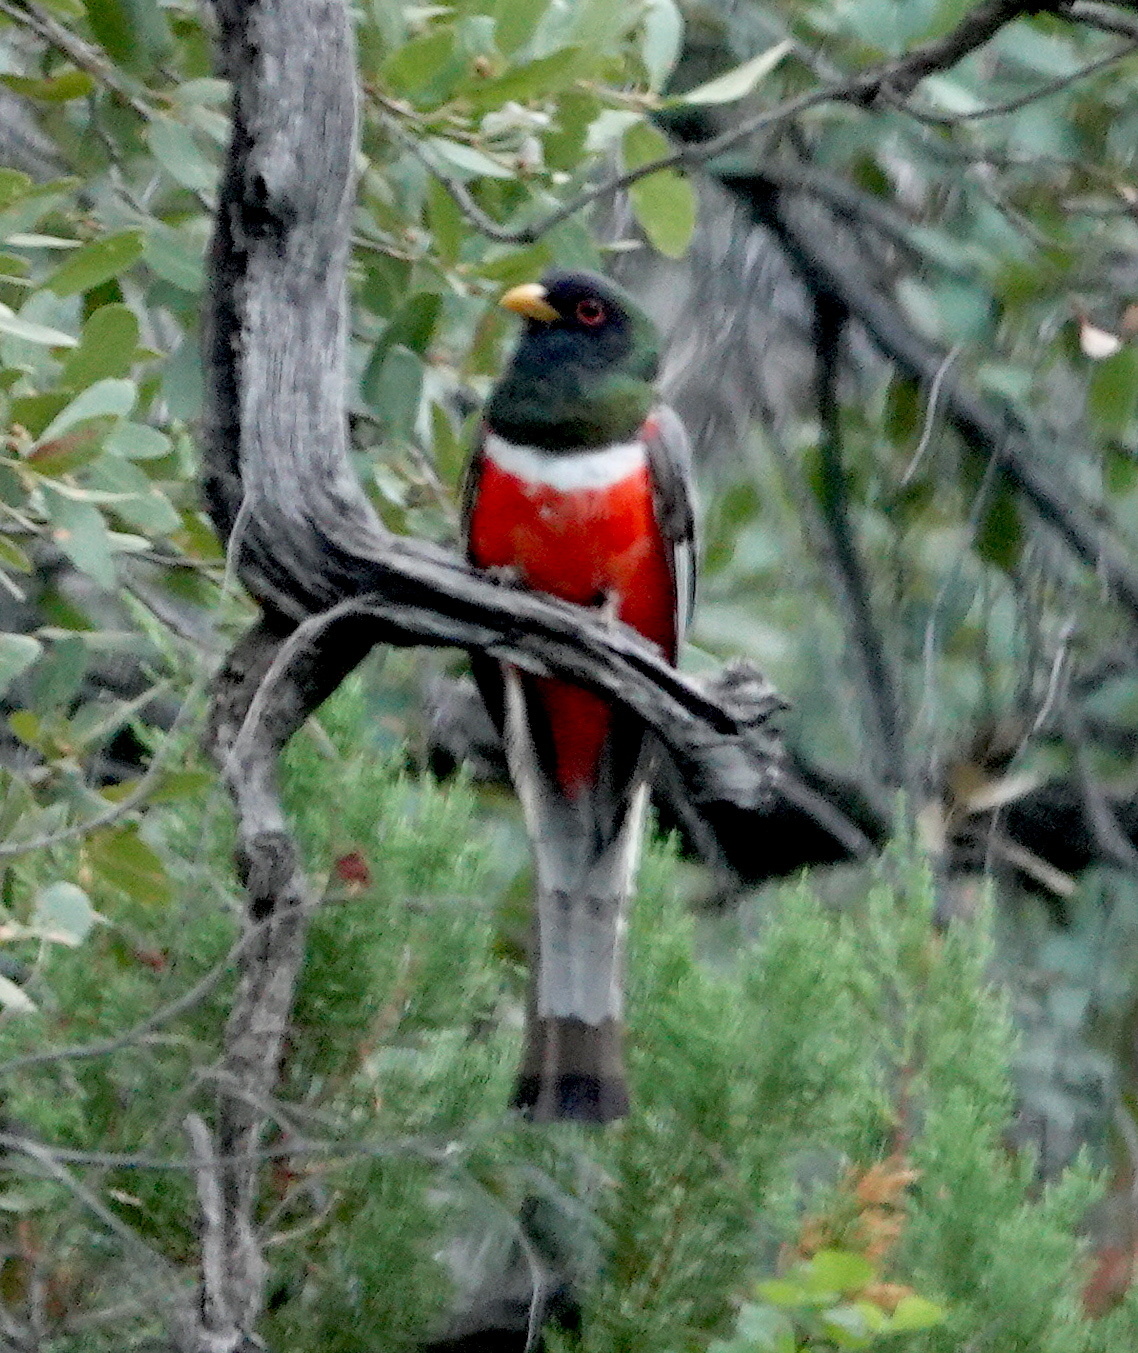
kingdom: Animalia
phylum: Chordata
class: Aves
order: Trogoniformes
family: Trogonidae
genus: Trogon
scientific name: Trogon elegans
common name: Elegant trogon
